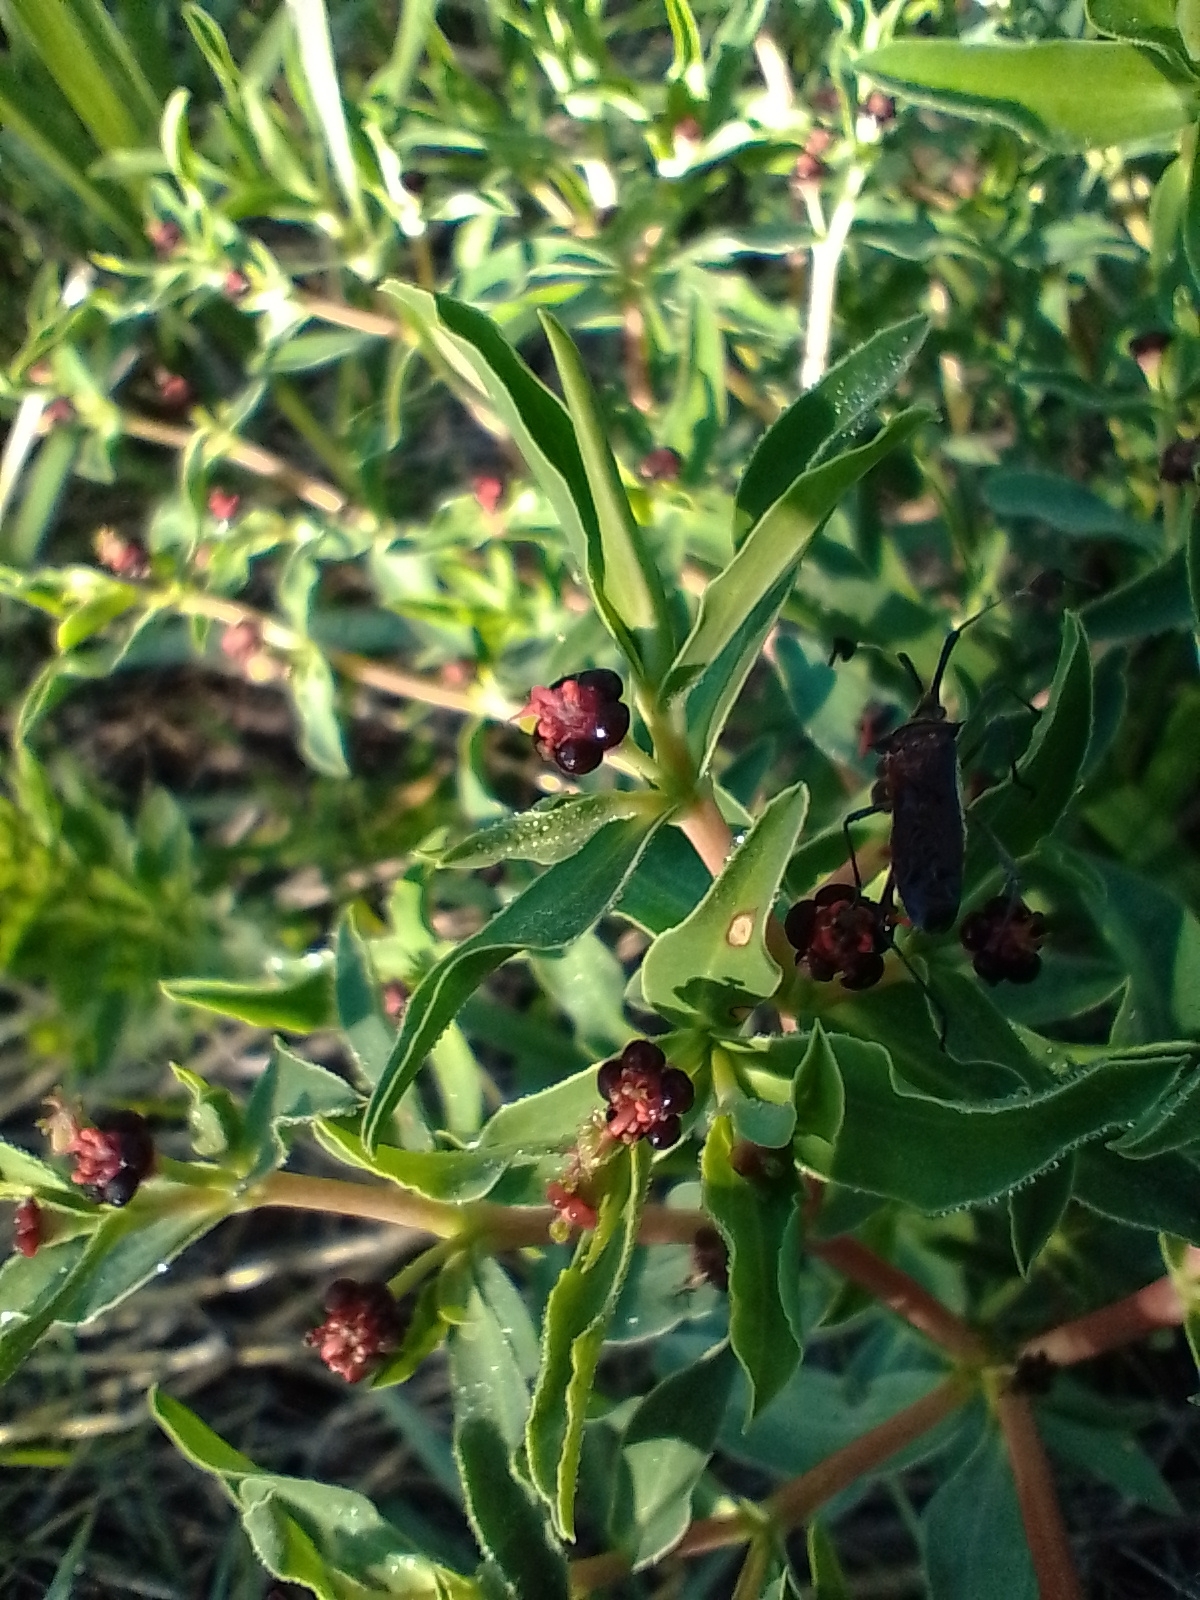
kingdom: Plantae
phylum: Tracheophyta
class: Magnoliopsida
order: Malpighiales
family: Euphorbiaceae
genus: Euphorbia
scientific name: Euphorbia portulacoides
